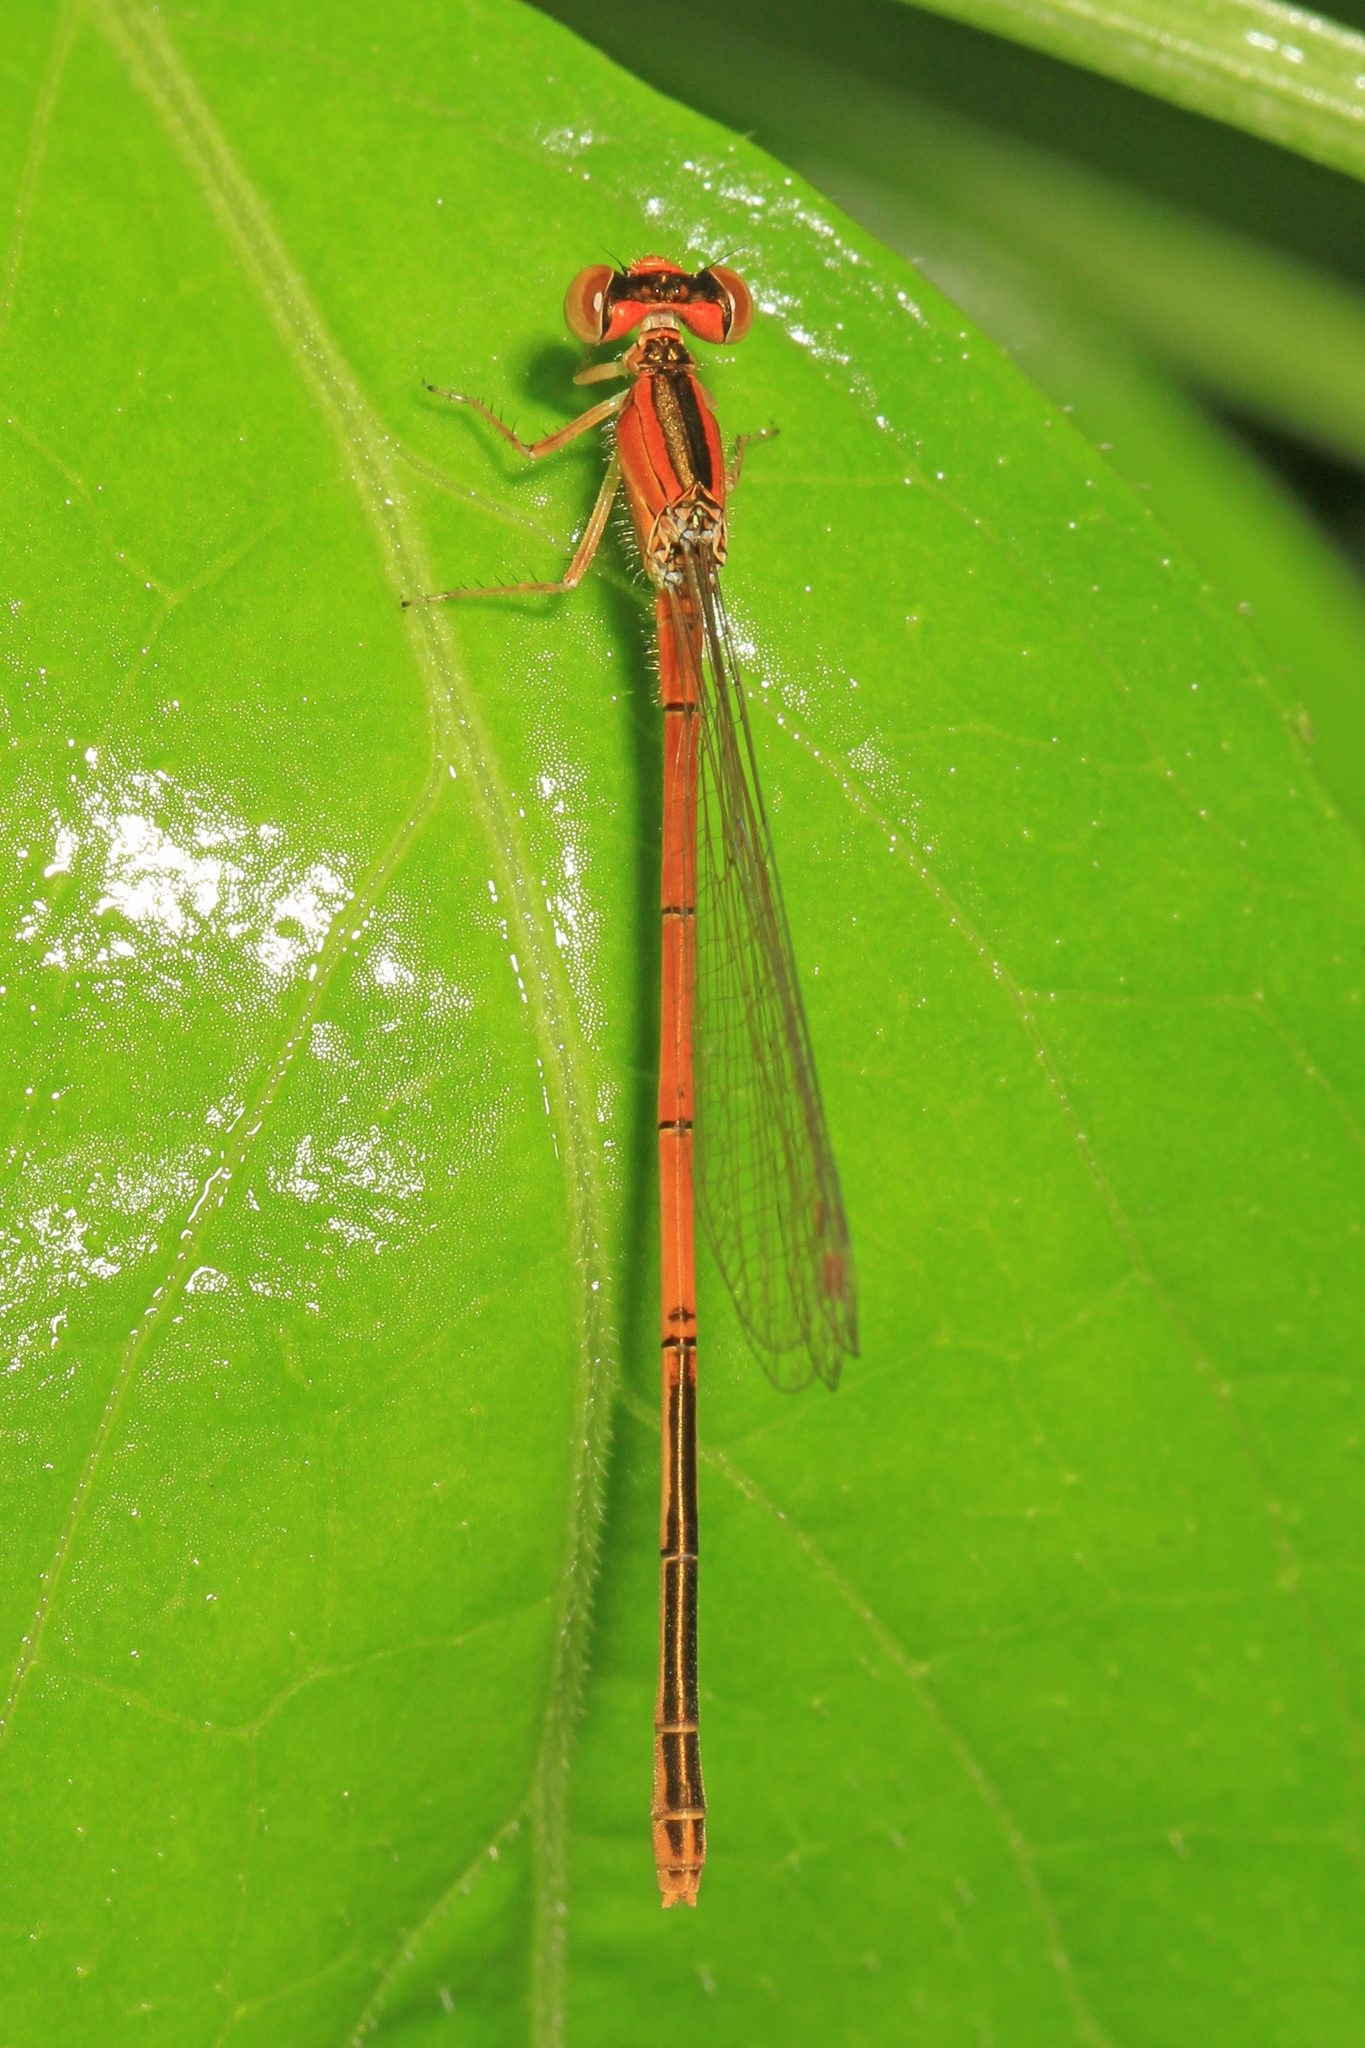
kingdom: Animalia
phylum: Arthropoda
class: Insecta
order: Odonata
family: Coenagrionidae
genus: Ischnura
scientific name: Ischnura hastata
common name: Citrine forktail
